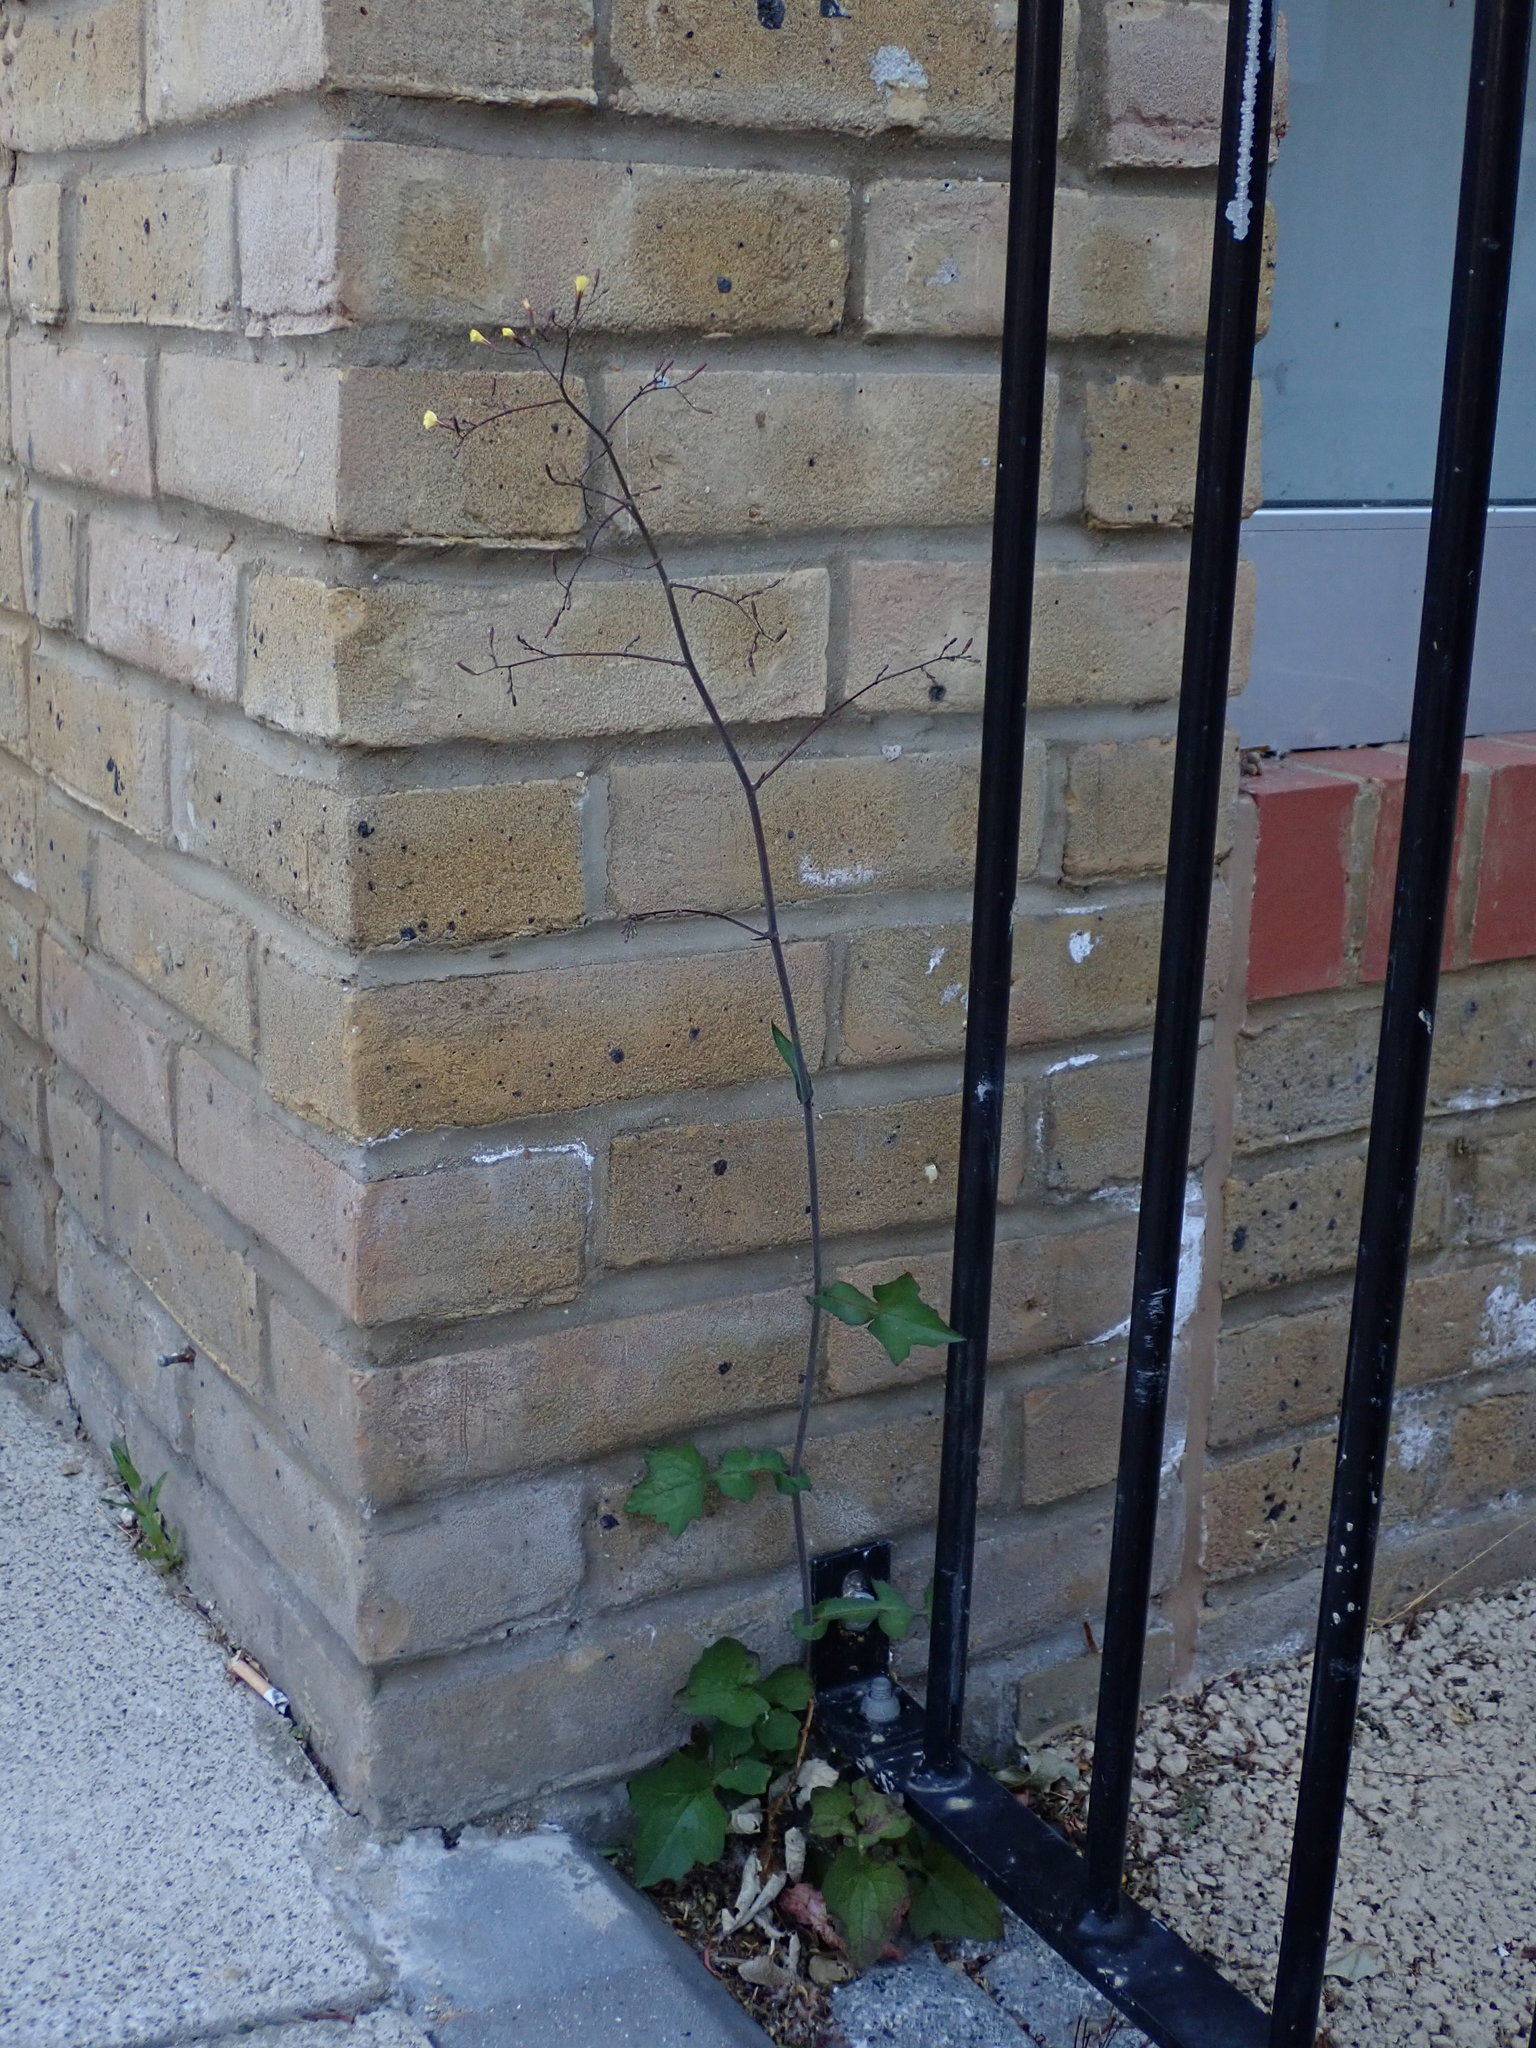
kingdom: Plantae
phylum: Tracheophyta
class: Magnoliopsida
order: Asterales
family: Asteraceae
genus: Mycelis
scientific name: Mycelis muralis
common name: Wall lettuce
